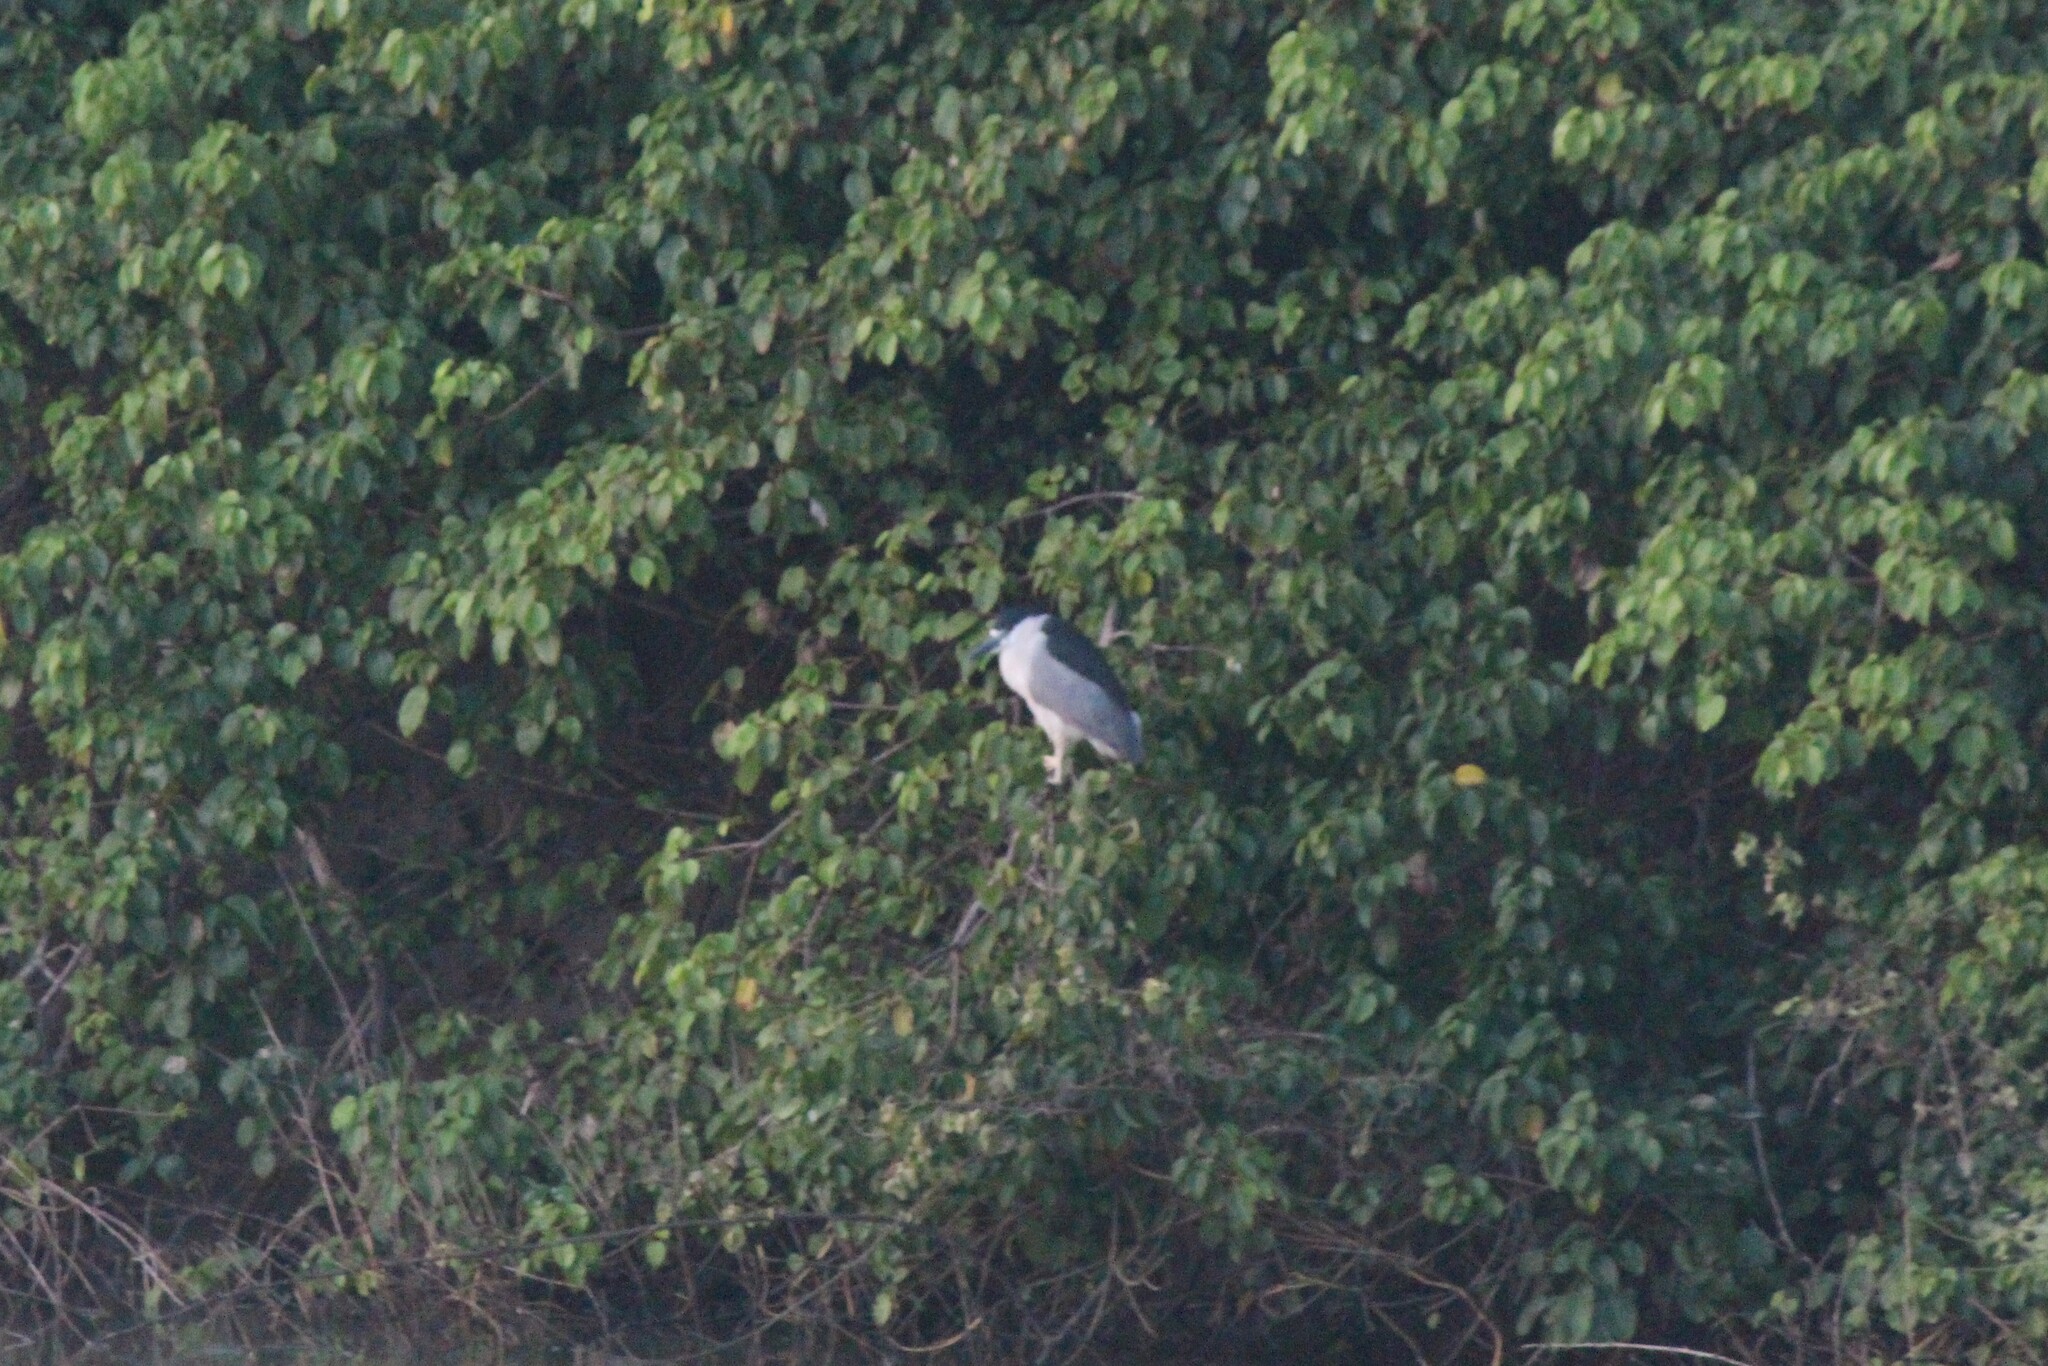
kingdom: Animalia
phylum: Chordata
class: Aves
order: Pelecaniformes
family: Ardeidae
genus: Nycticorax
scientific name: Nycticorax nycticorax
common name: Black-crowned night heron
